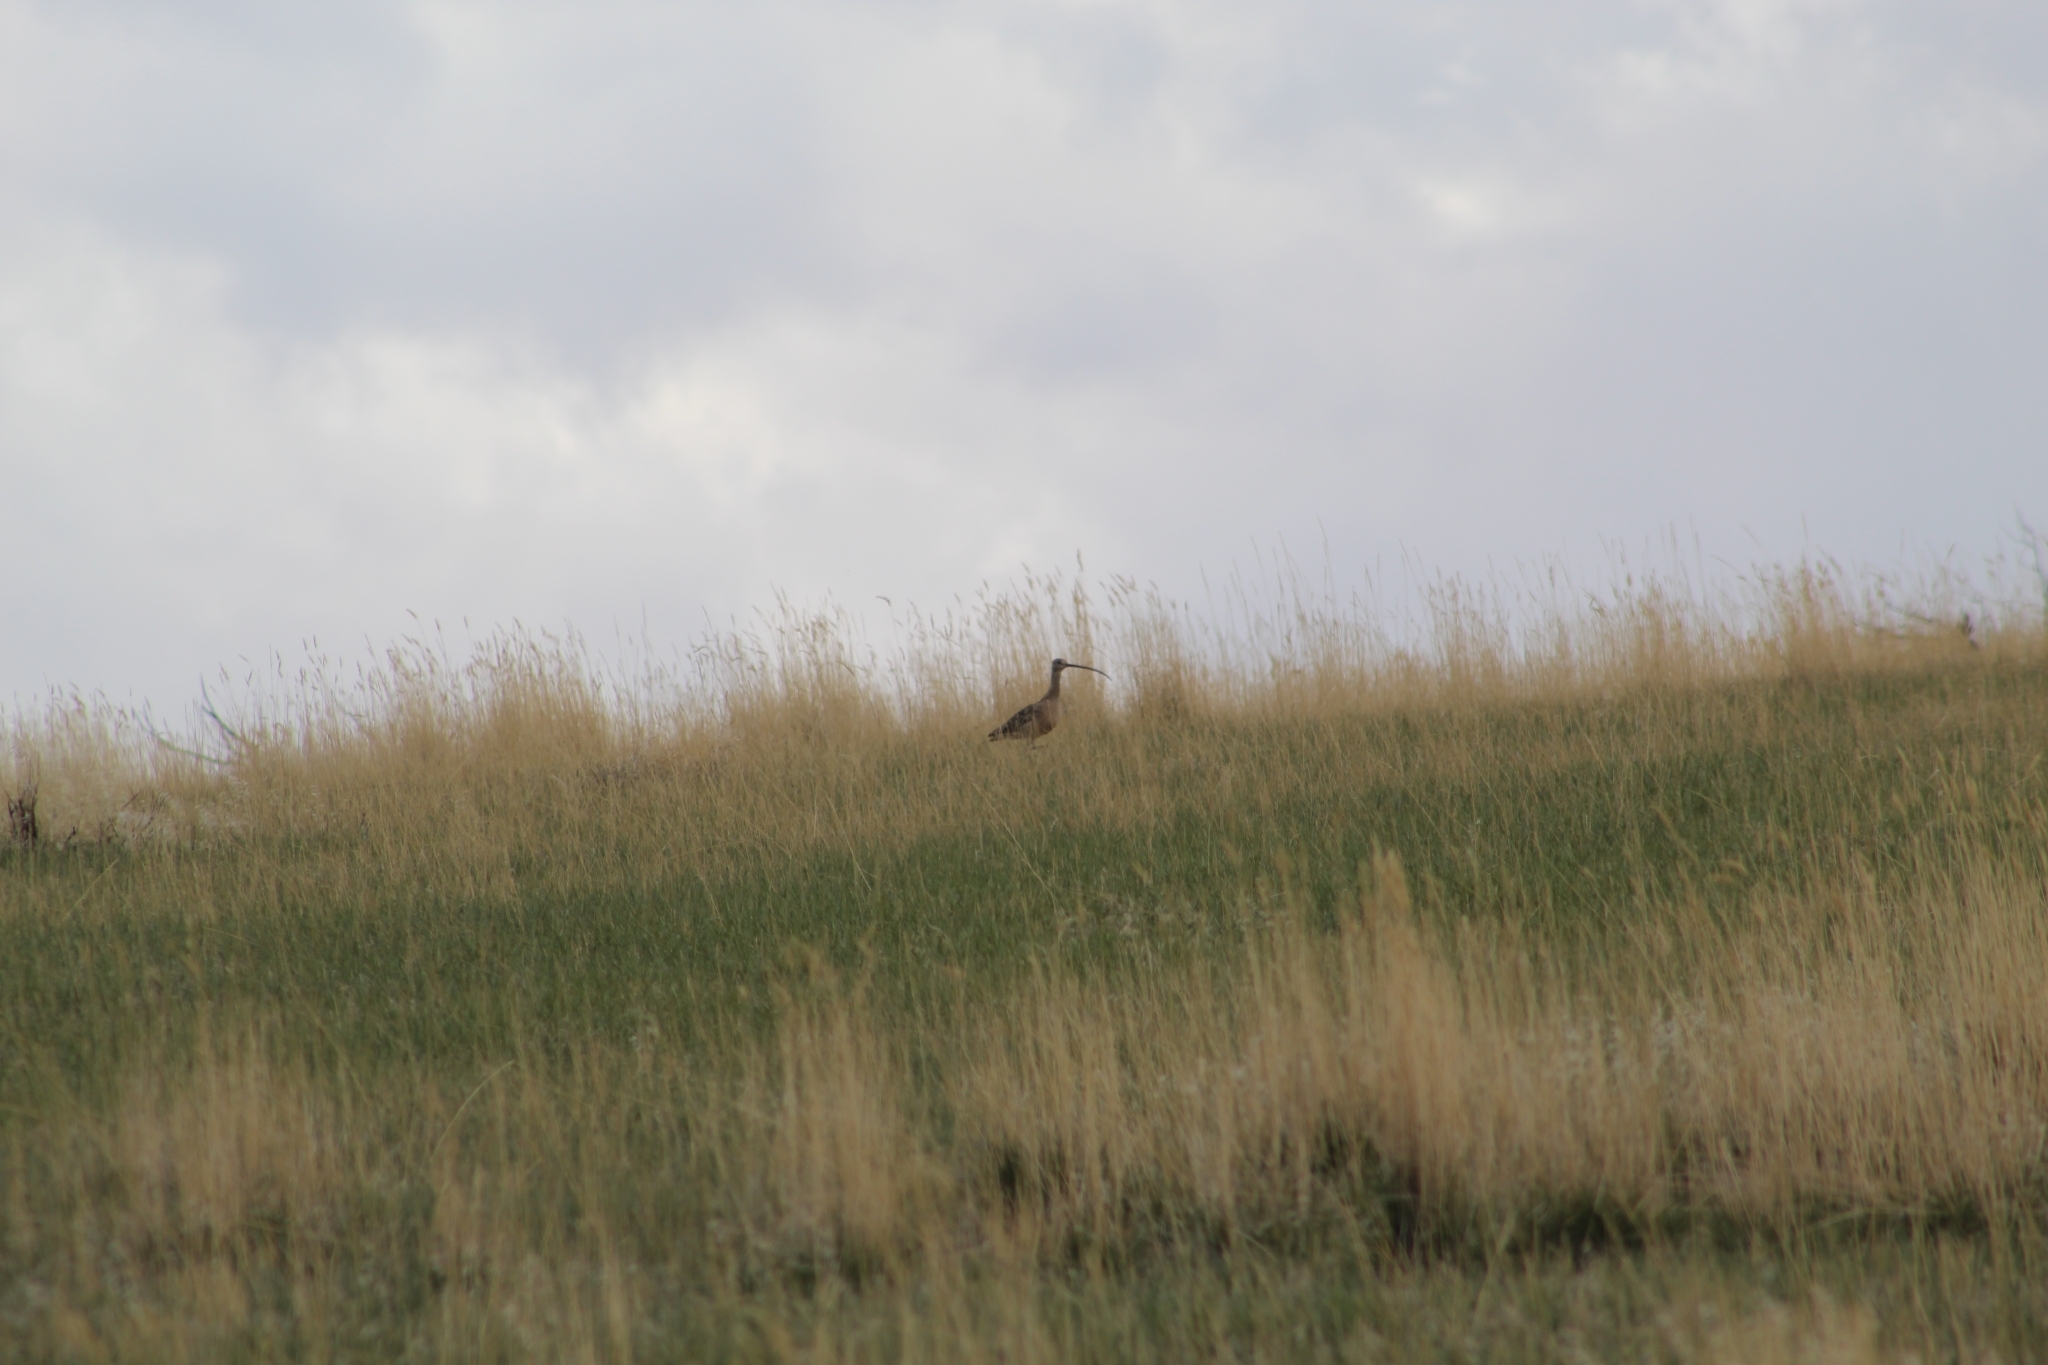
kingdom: Animalia
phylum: Chordata
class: Aves
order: Charadriiformes
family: Scolopacidae
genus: Numenius
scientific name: Numenius americanus
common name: Long-billed curlew
